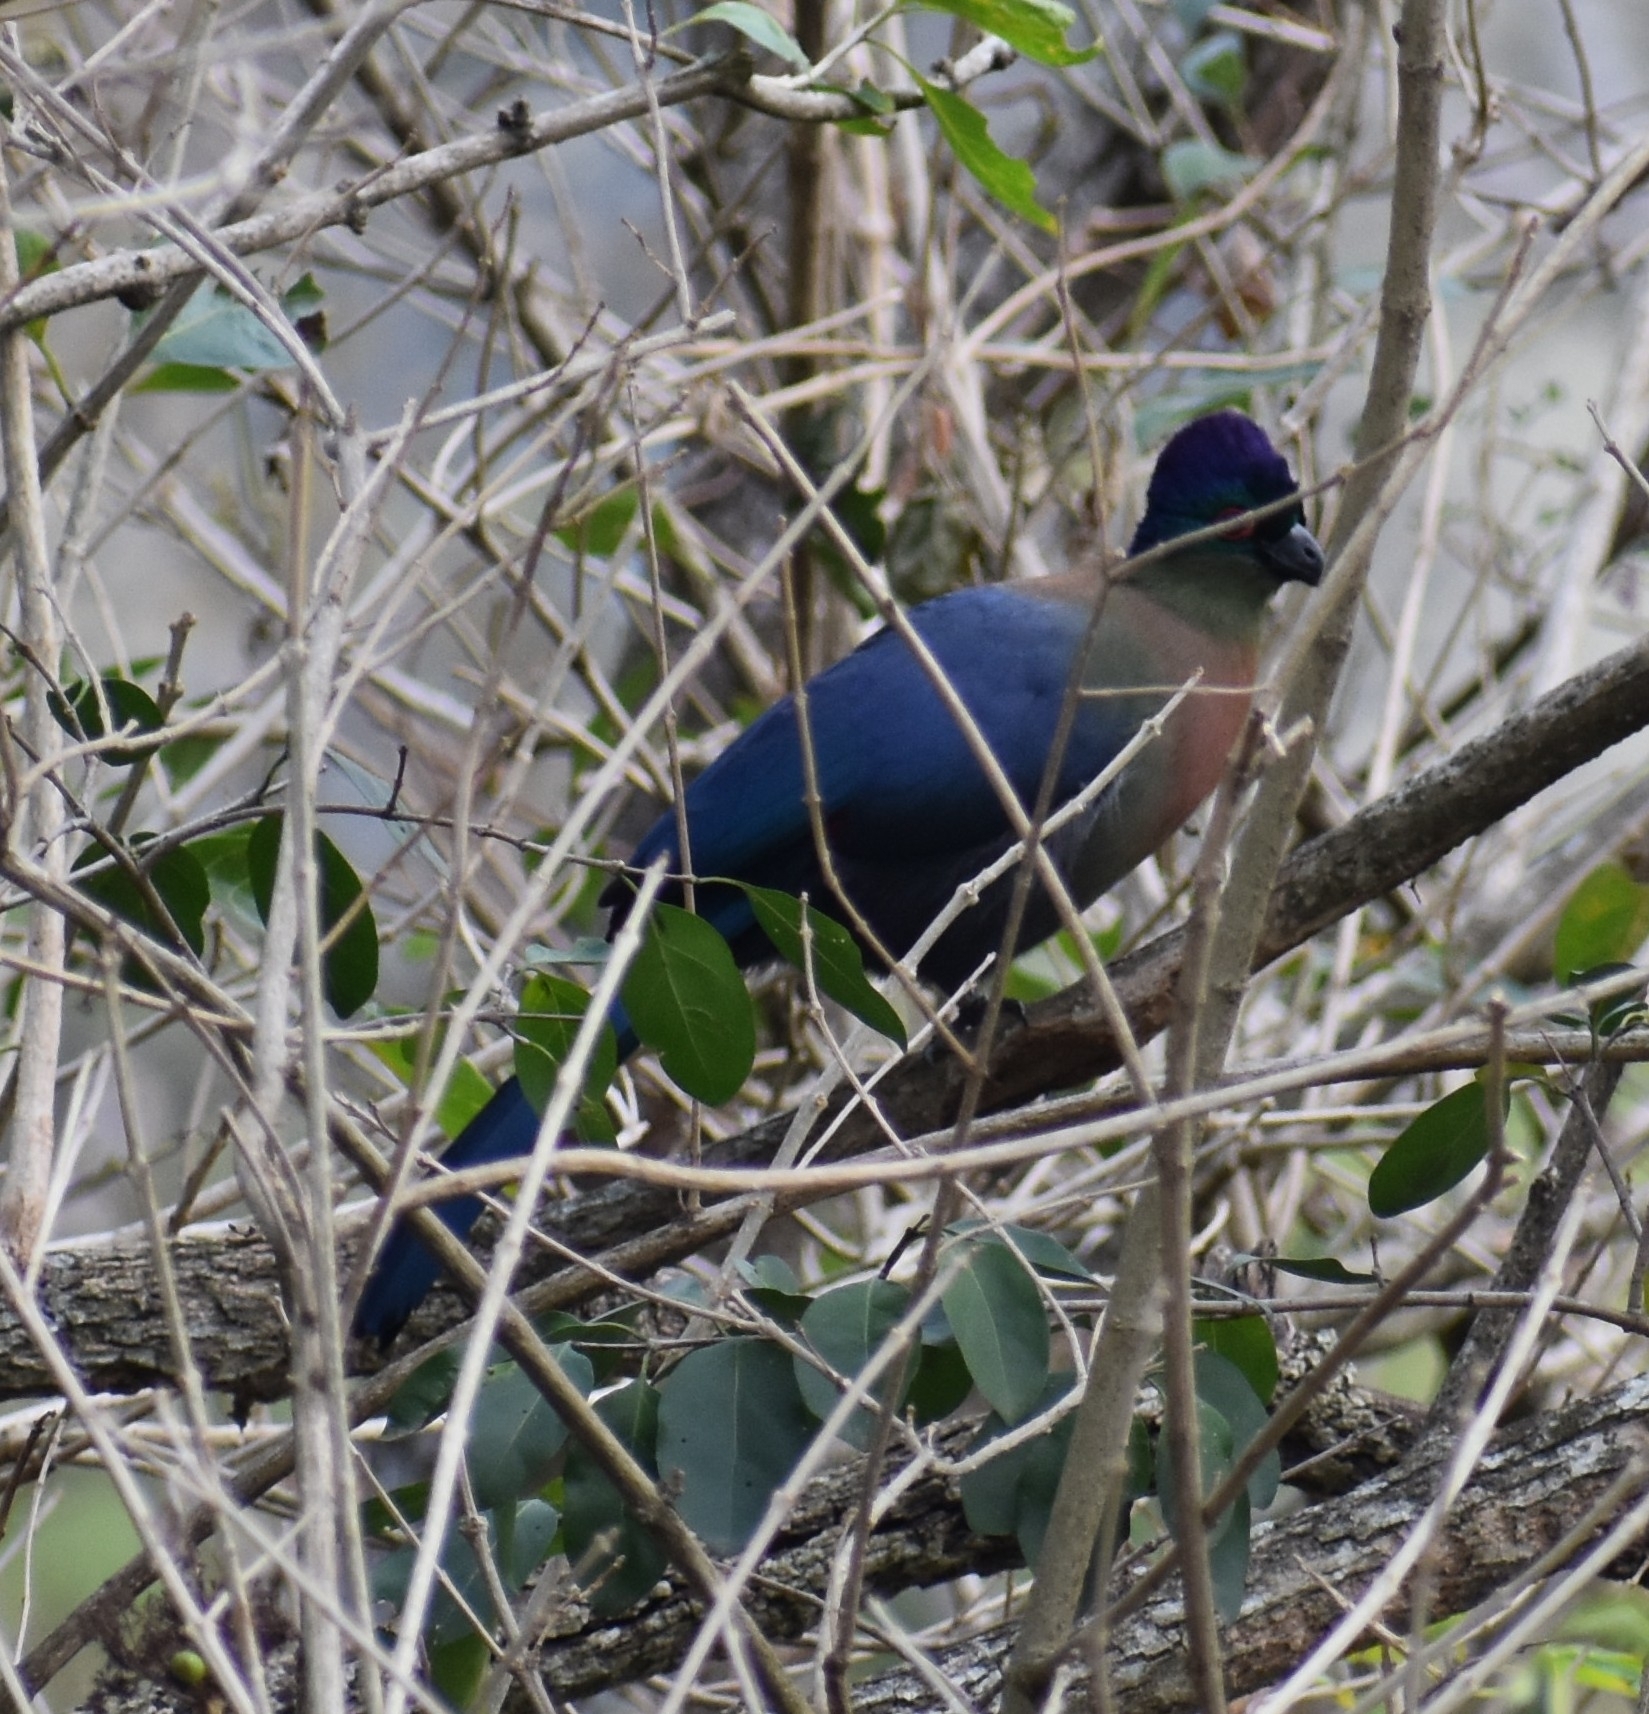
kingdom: Animalia
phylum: Chordata
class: Aves
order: Musophagiformes
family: Musophagidae
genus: Tauraco
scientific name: Tauraco porphyreolophus
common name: Purple-crested turaco
